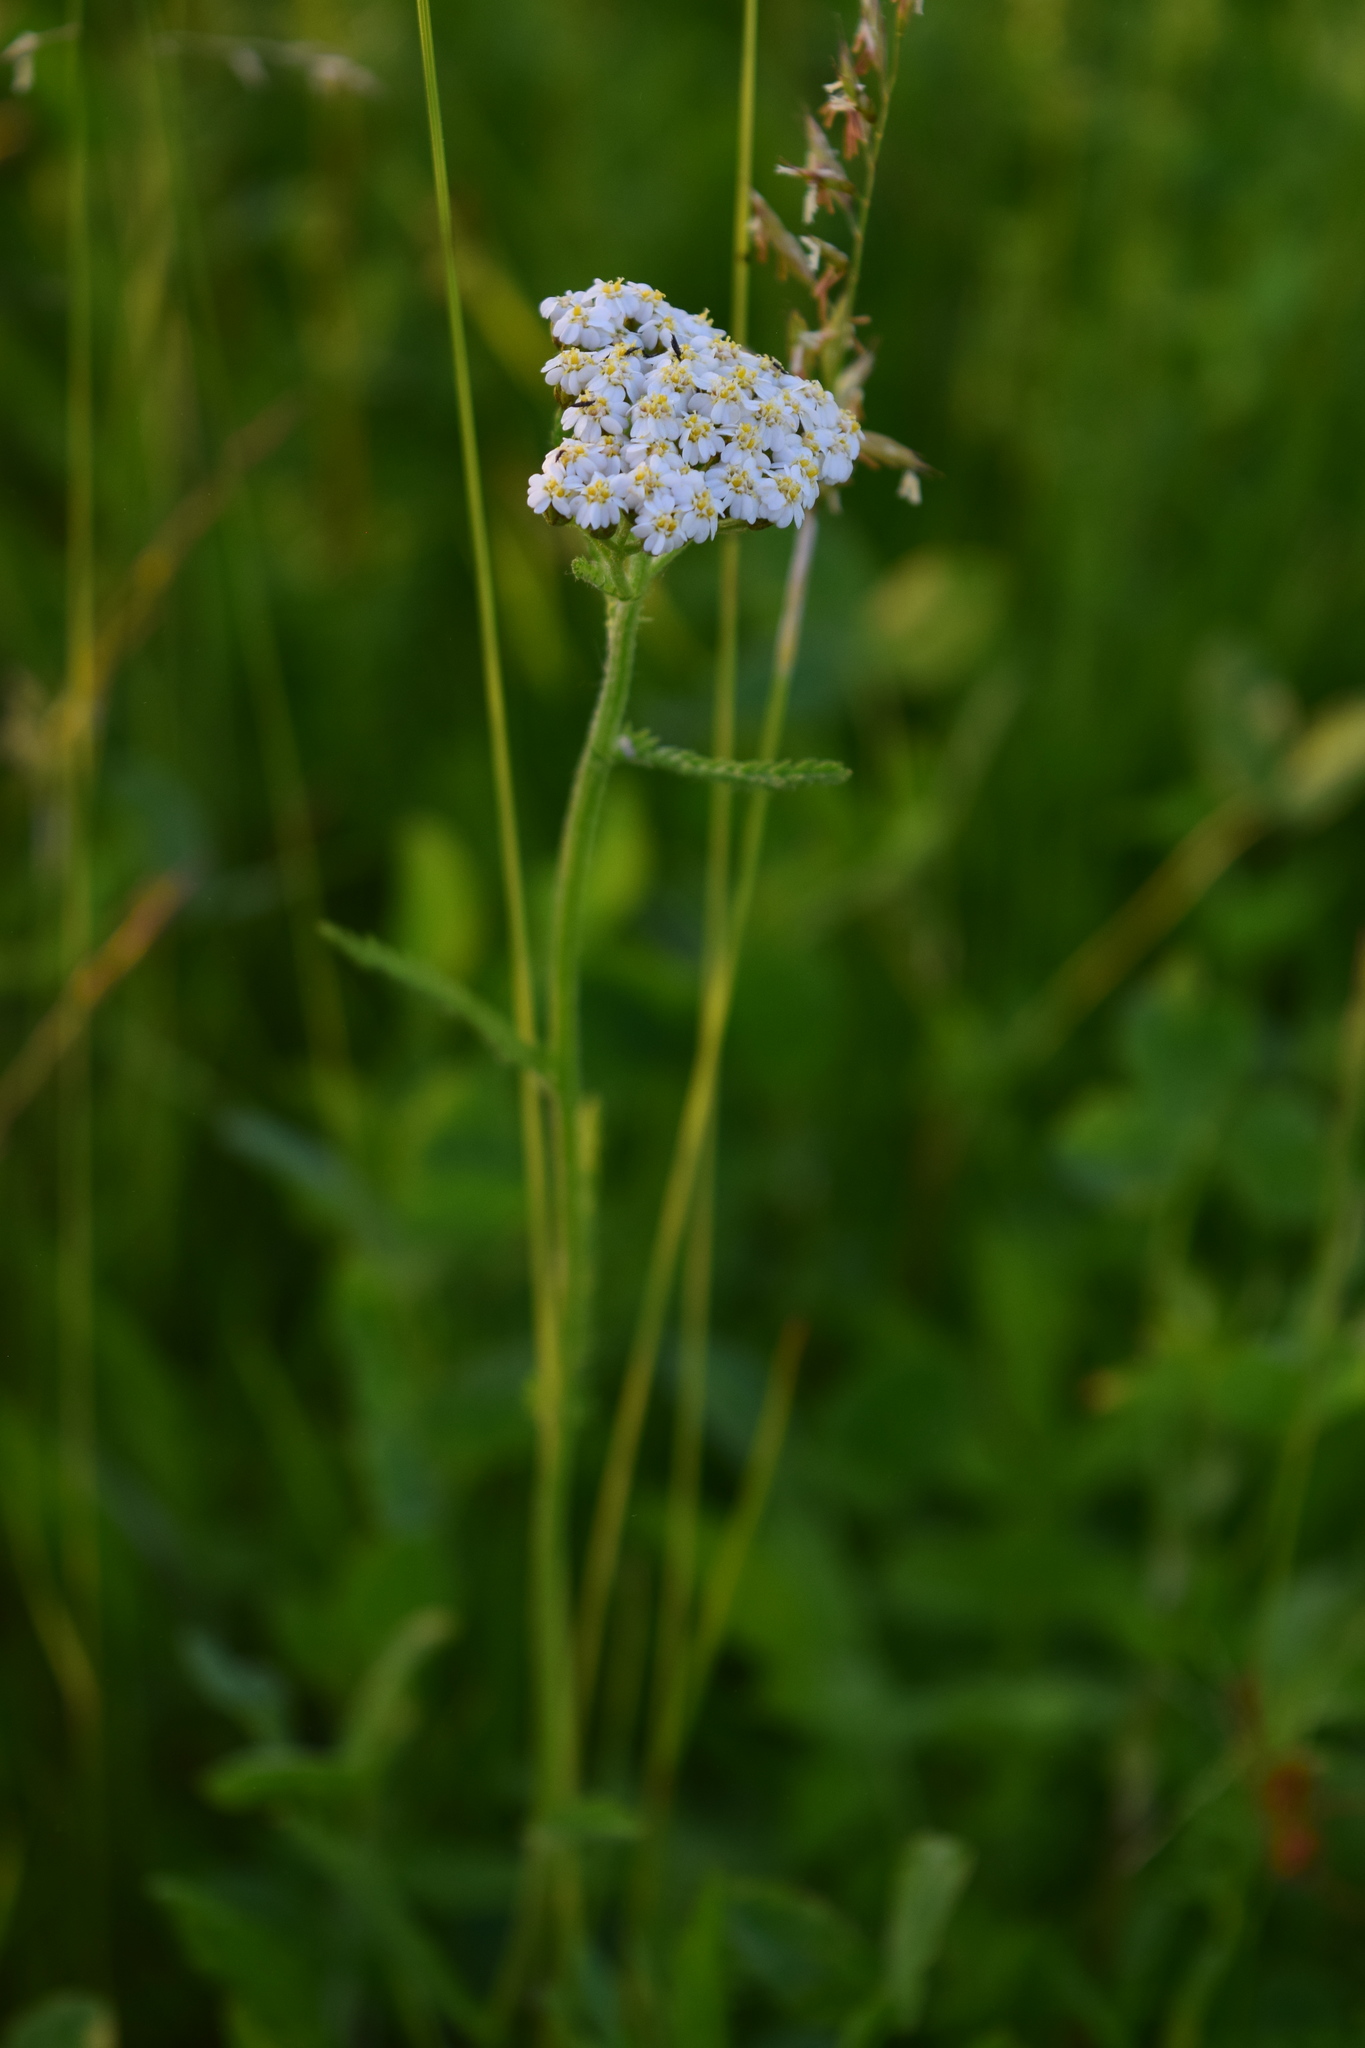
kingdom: Plantae
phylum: Tracheophyta
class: Magnoliopsida
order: Asterales
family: Asteraceae
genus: Achillea
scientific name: Achillea millefolium
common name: Yarrow
